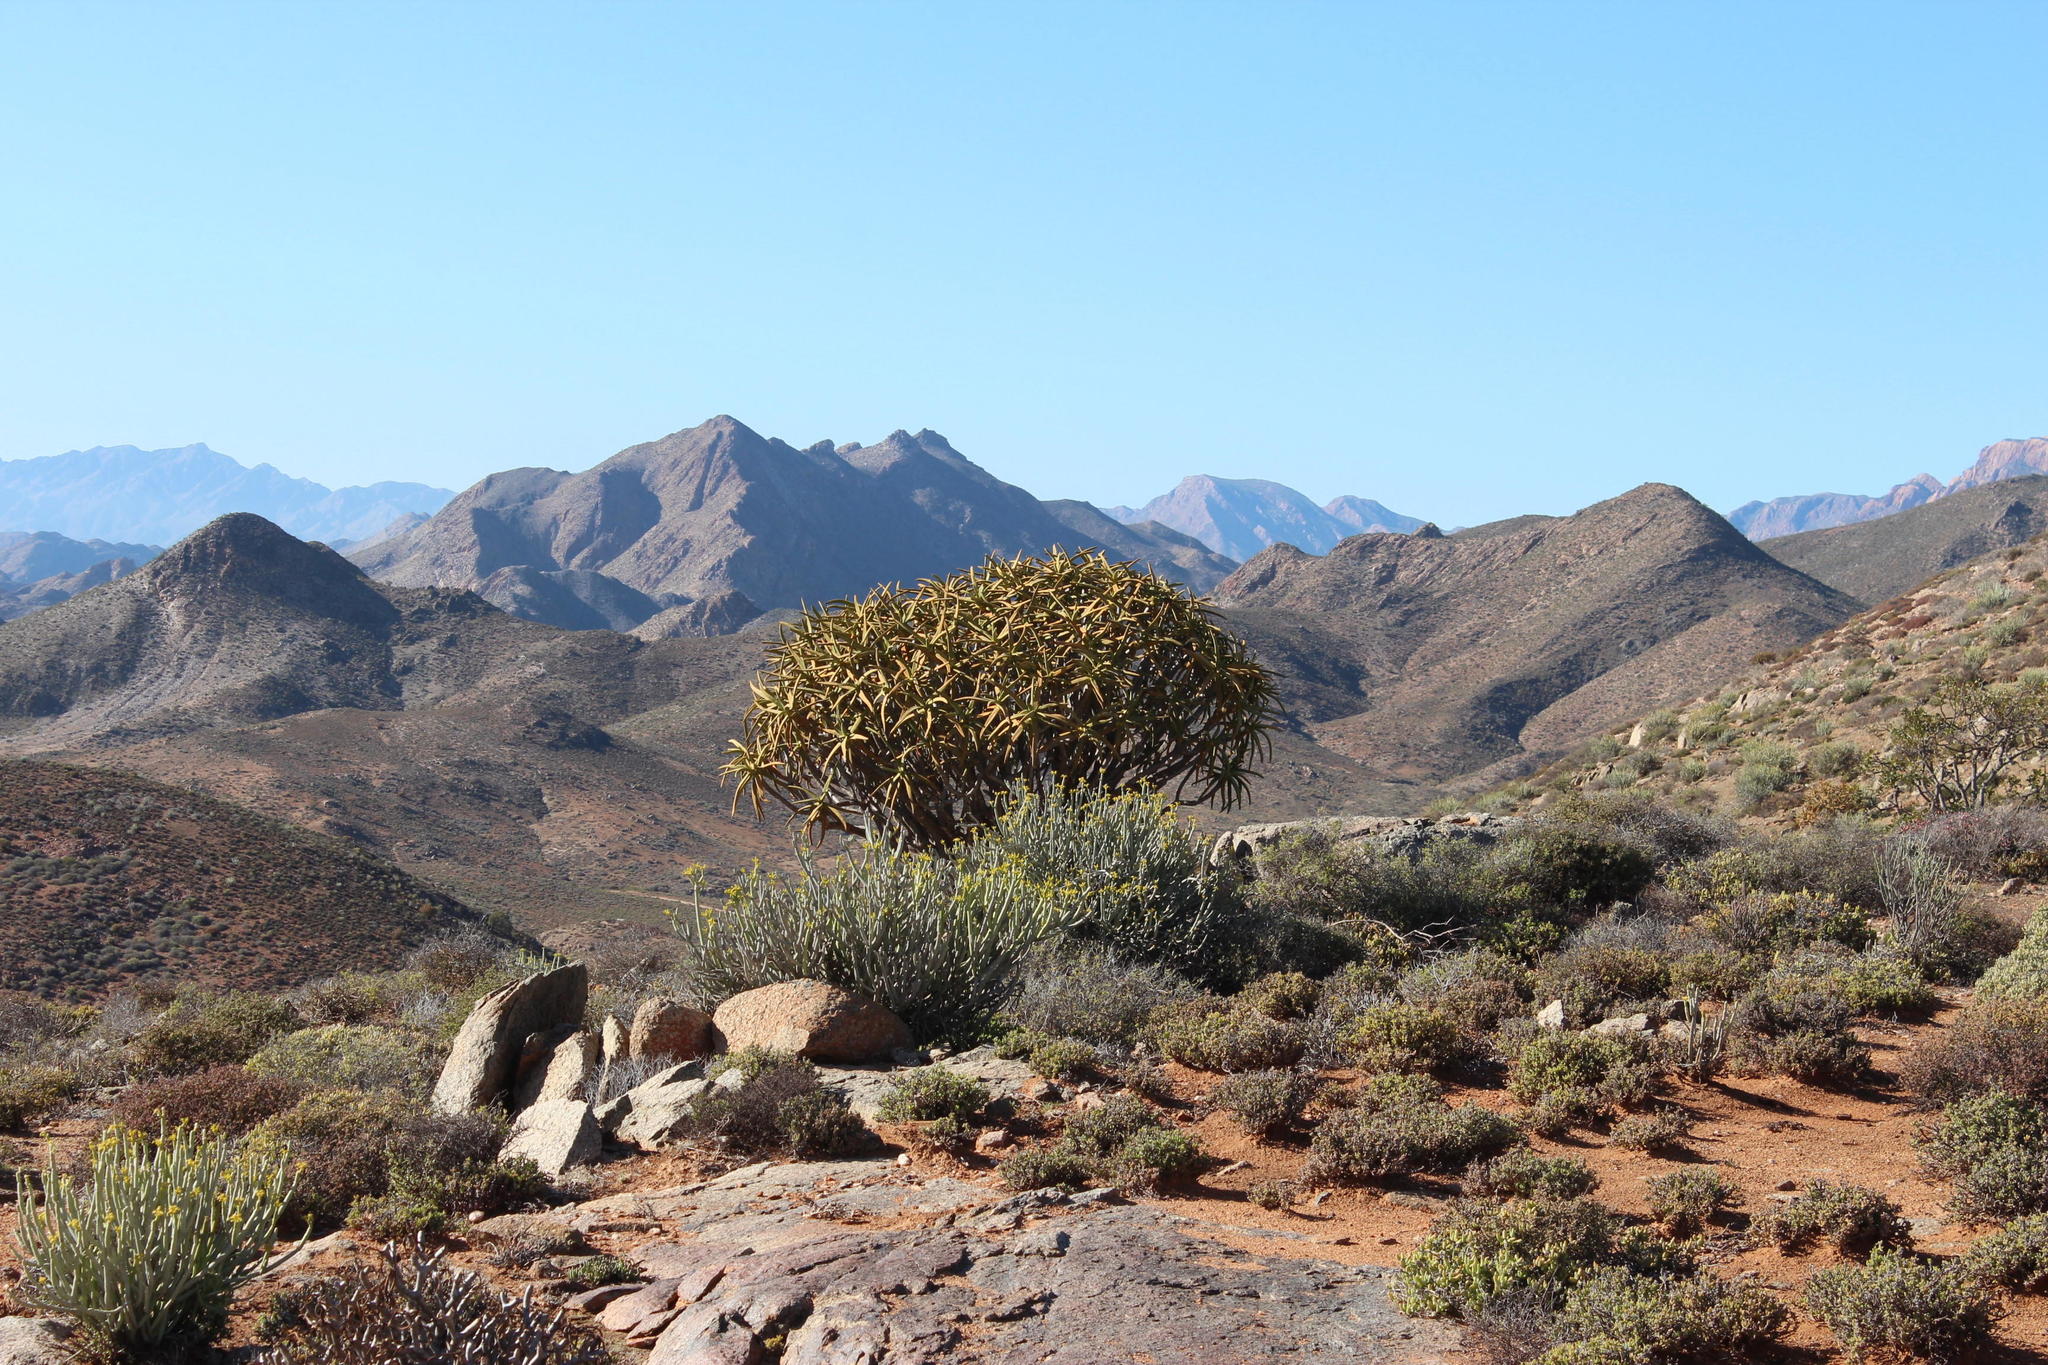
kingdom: Plantae
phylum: Tracheophyta
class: Liliopsida
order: Asparagales
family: Asphodelaceae
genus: Aloidendron
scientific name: Aloidendron ramosissimum
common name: Bush quiver tree
